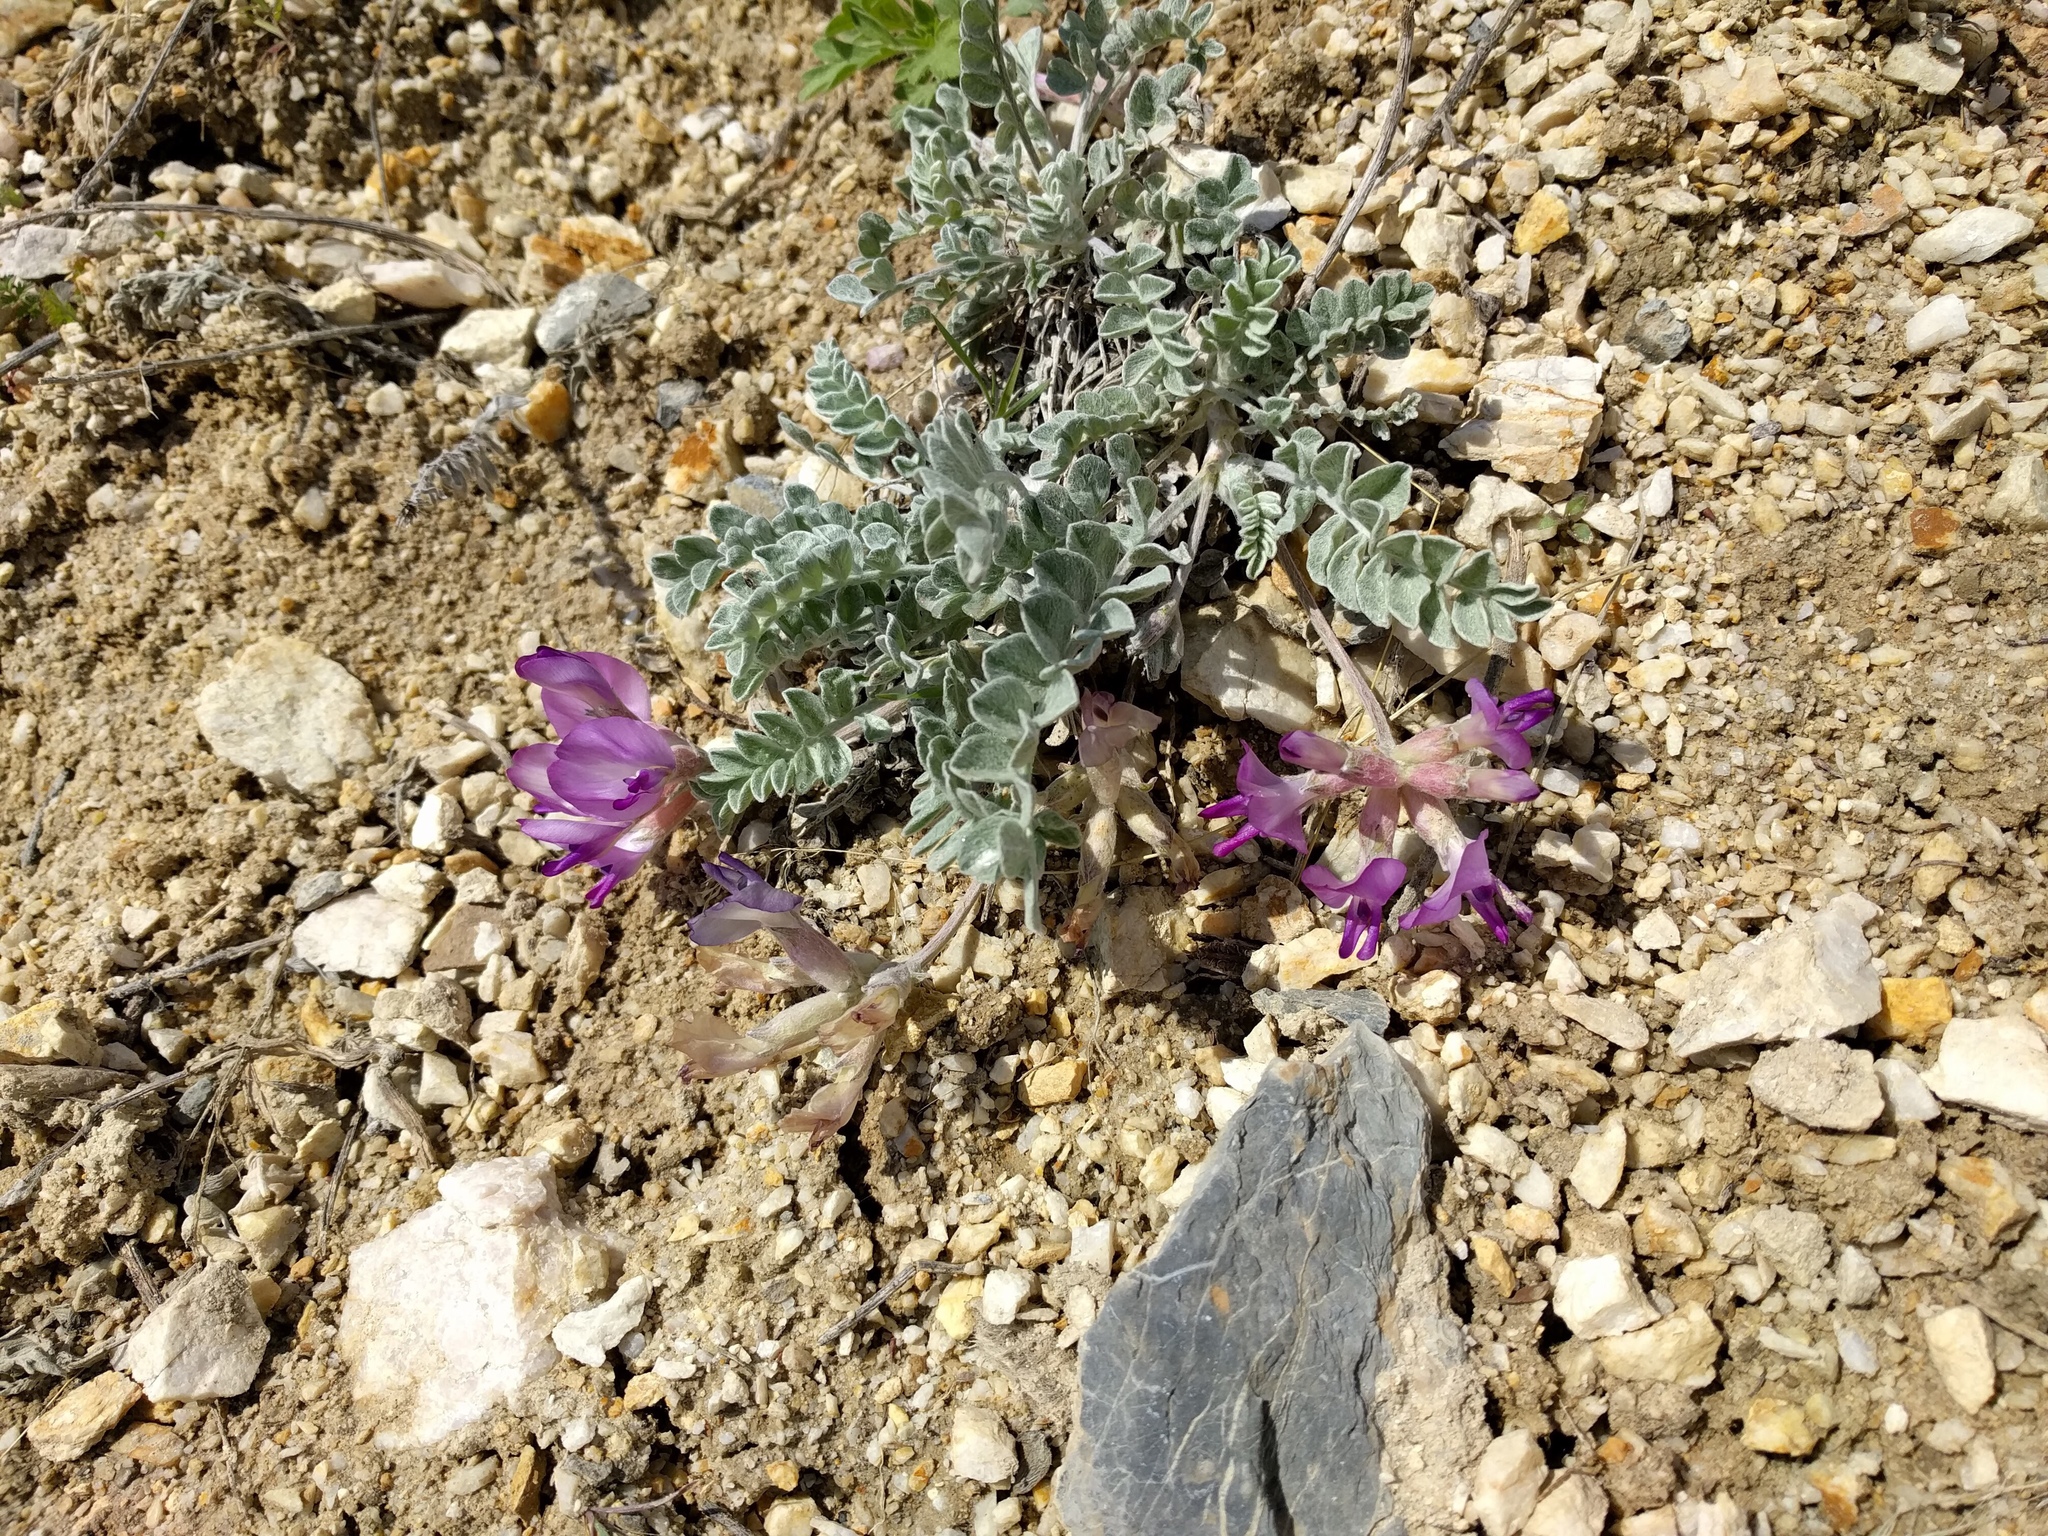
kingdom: Plantae
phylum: Tracheophyta
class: Magnoliopsida
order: Fabales
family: Fabaceae
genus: Astragalus
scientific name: Astragalus utahensis
